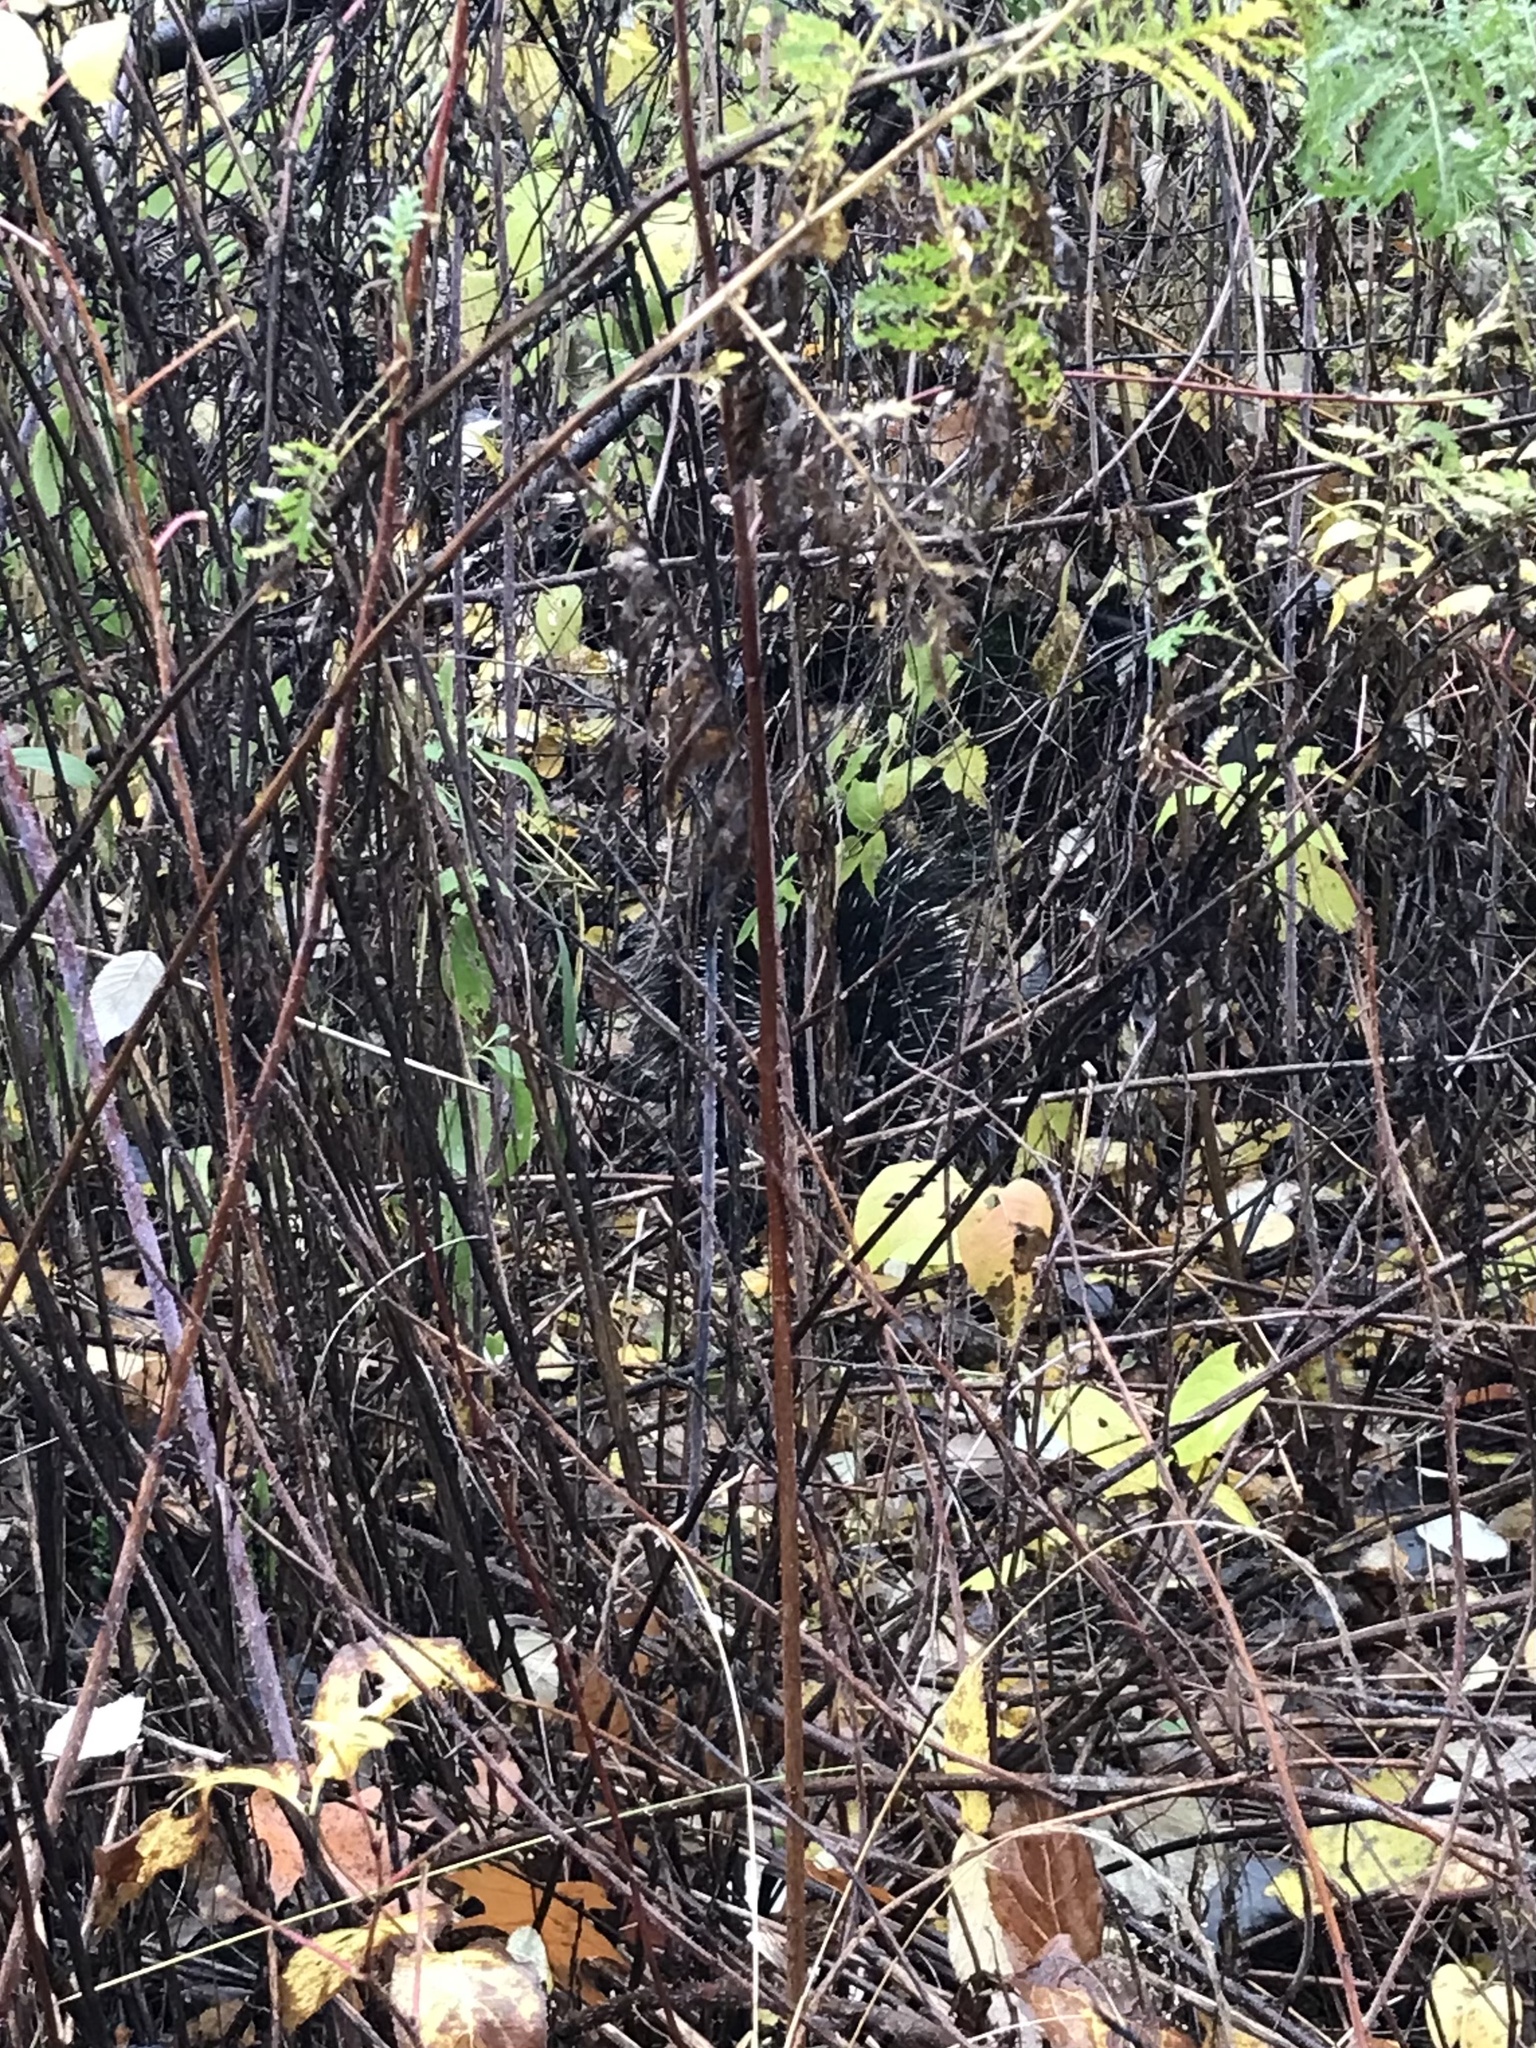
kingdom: Animalia
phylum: Chordata
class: Mammalia
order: Rodentia
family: Erethizontidae
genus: Erethizon
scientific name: Erethizon dorsatus
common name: North american porcupine
